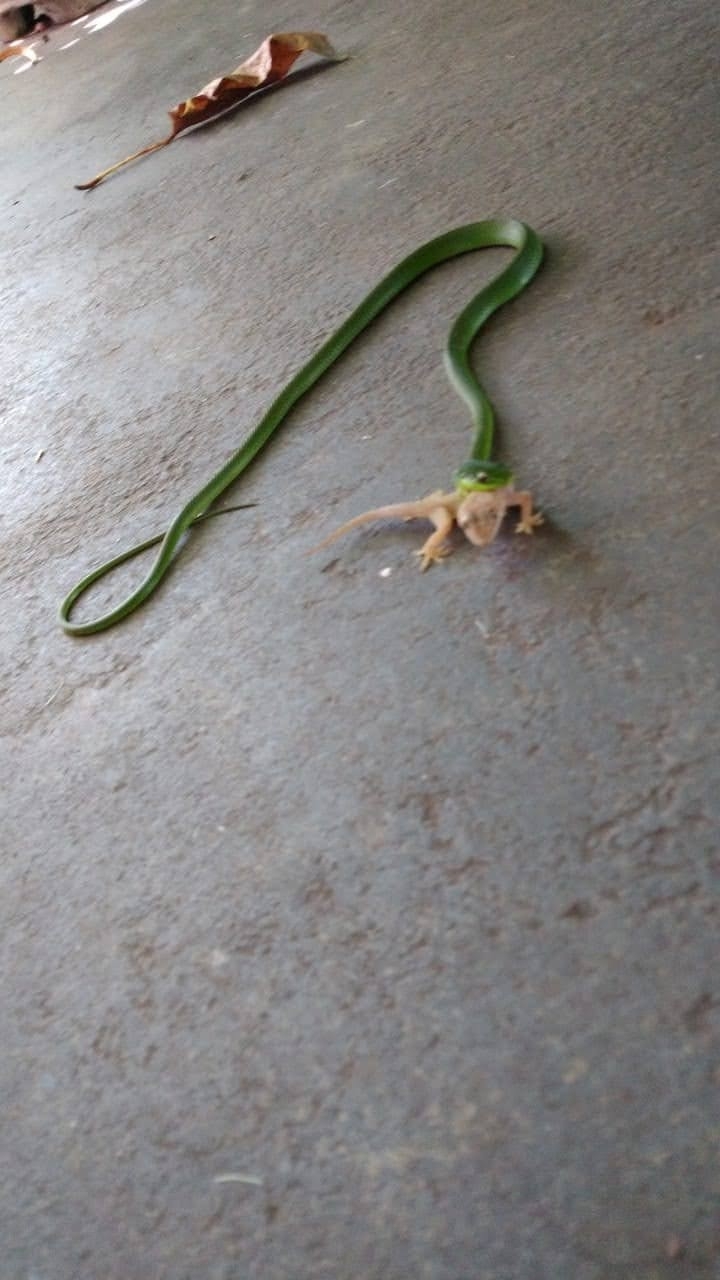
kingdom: Animalia
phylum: Chordata
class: Squamata
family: Colubridae
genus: Philodryas
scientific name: Philodryas olfersii
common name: Lichtenstein's green racer
